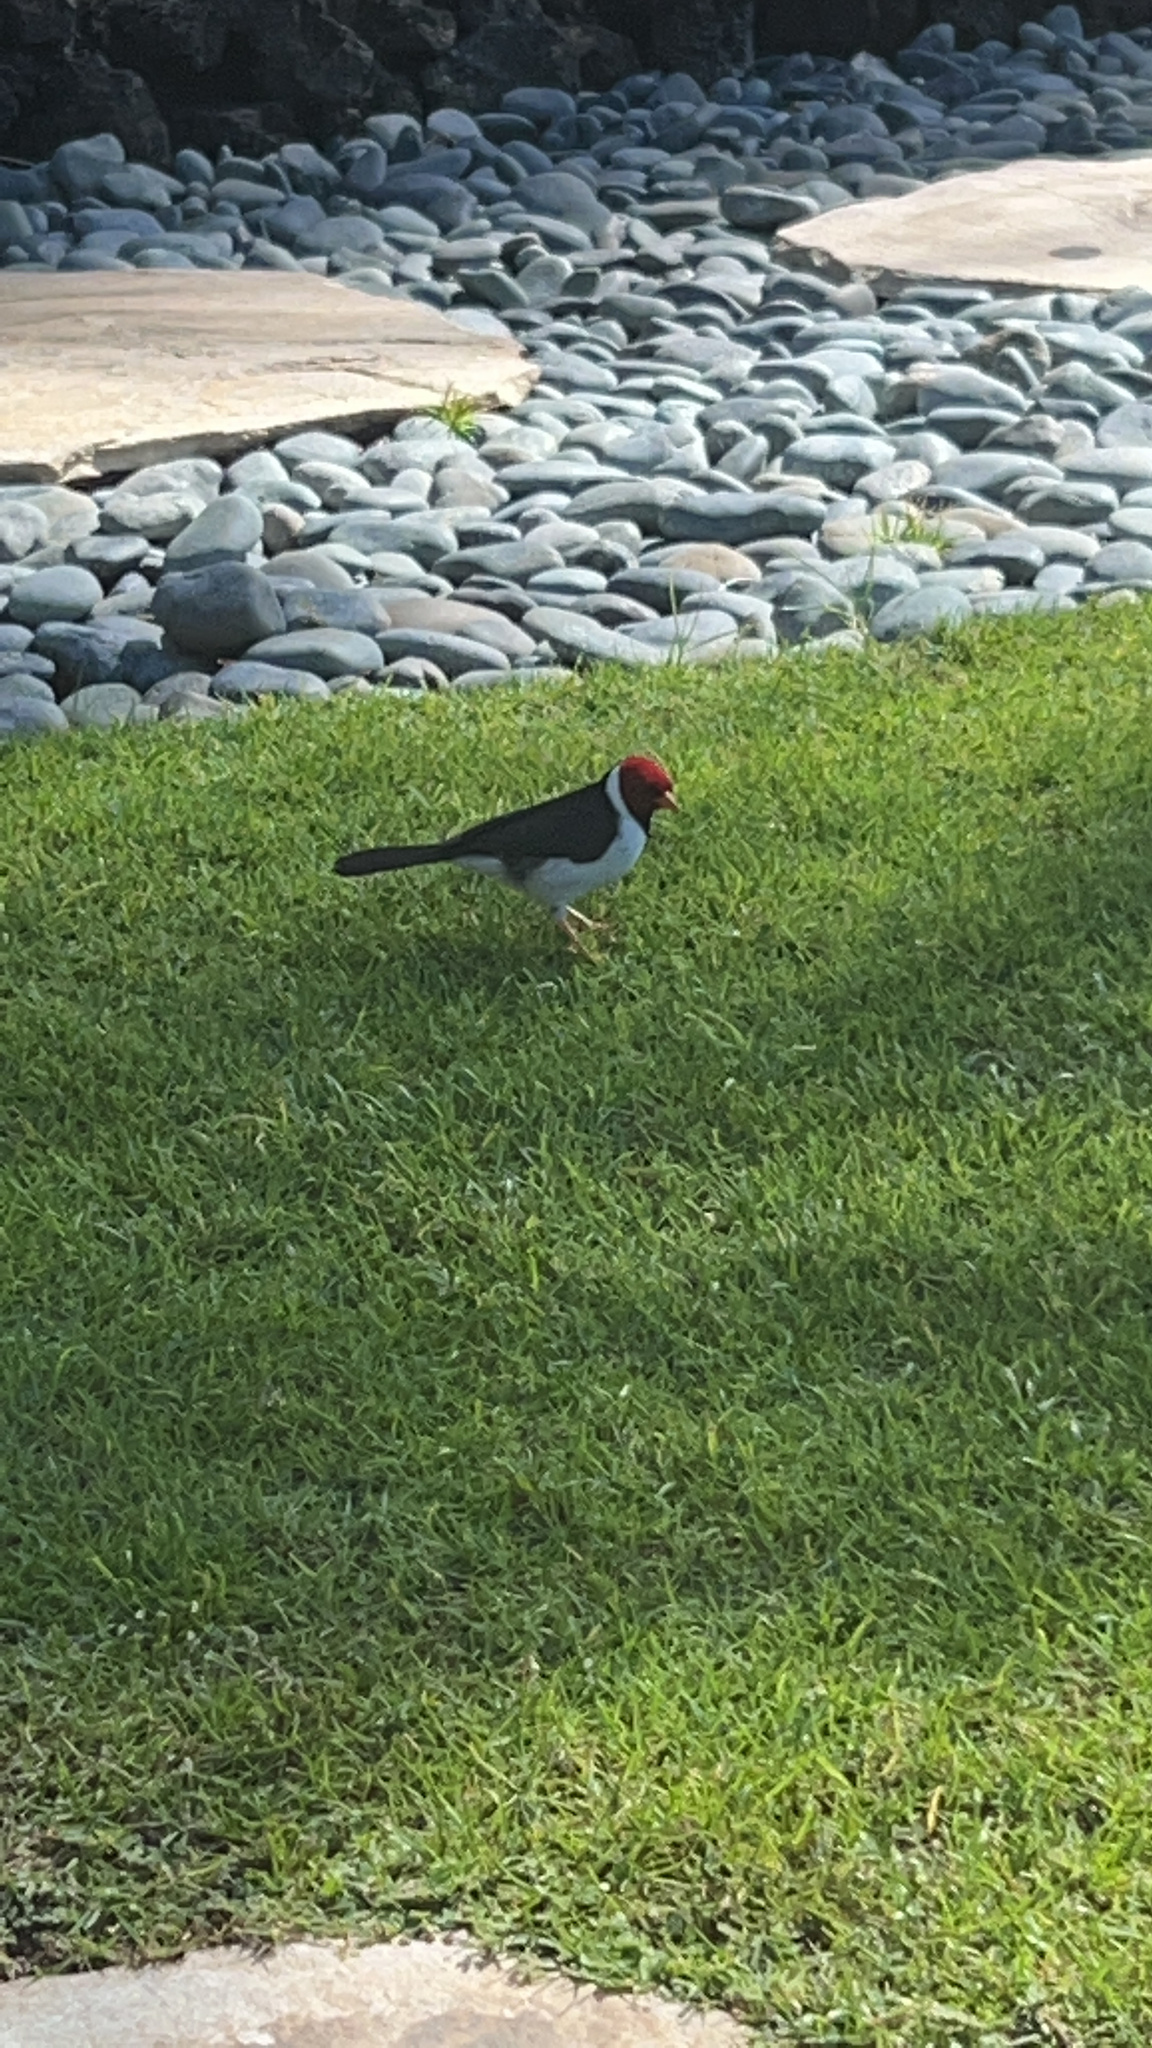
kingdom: Animalia
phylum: Chordata
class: Aves
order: Passeriformes
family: Thraupidae
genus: Paroaria
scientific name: Paroaria capitata
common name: Yellow-billed cardinal
